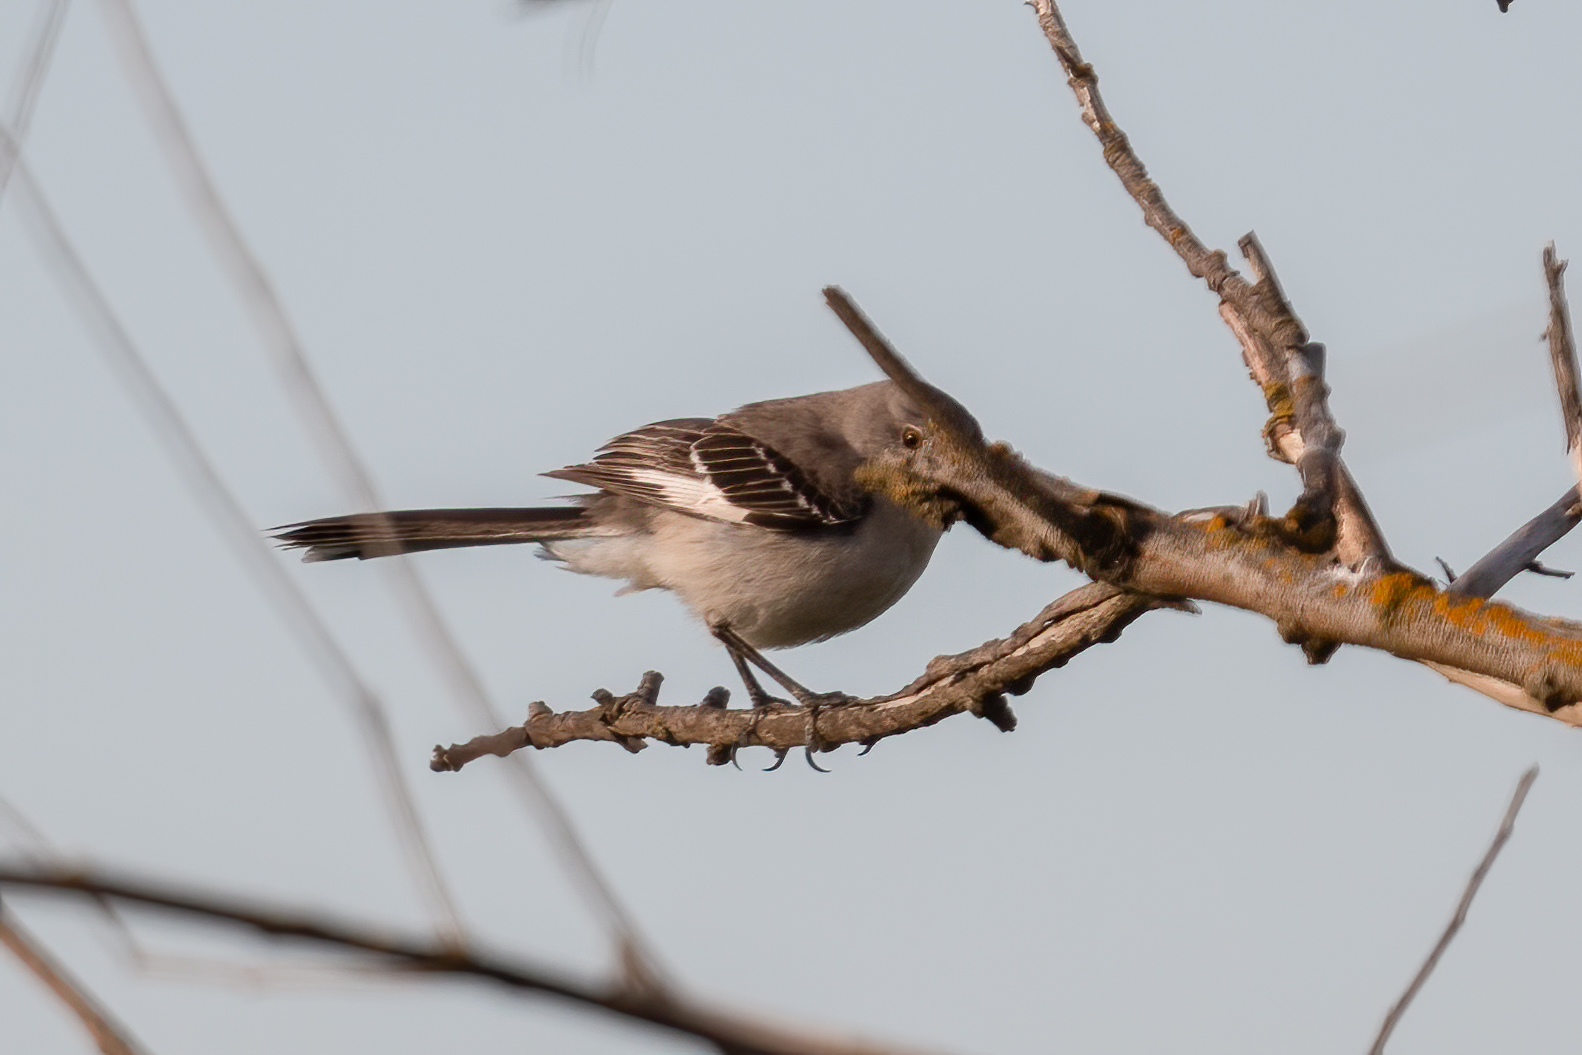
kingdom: Animalia
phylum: Chordata
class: Aves
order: Passeriformes
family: Mimidae
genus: Mimus
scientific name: Mimus polyglottos
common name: Northern mockingbird
